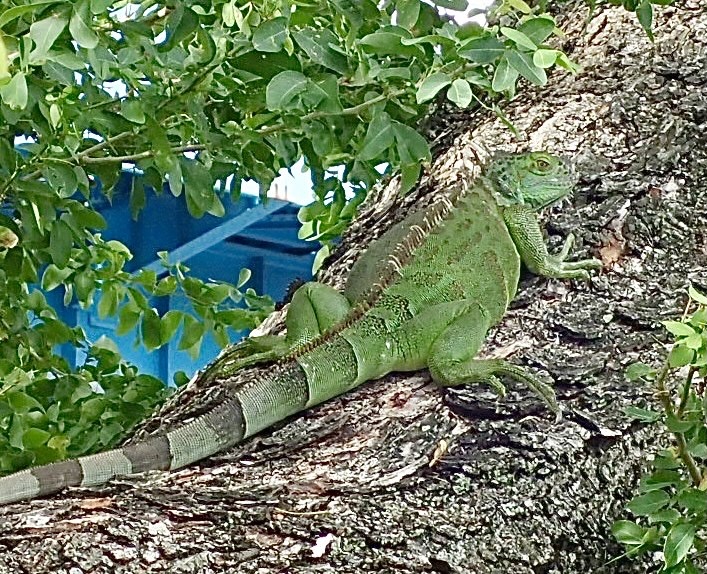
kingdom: Animalia
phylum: Chordata
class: Squamata
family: Iguanidae
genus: Iguana
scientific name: Iguana iguana
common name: Green iguana
